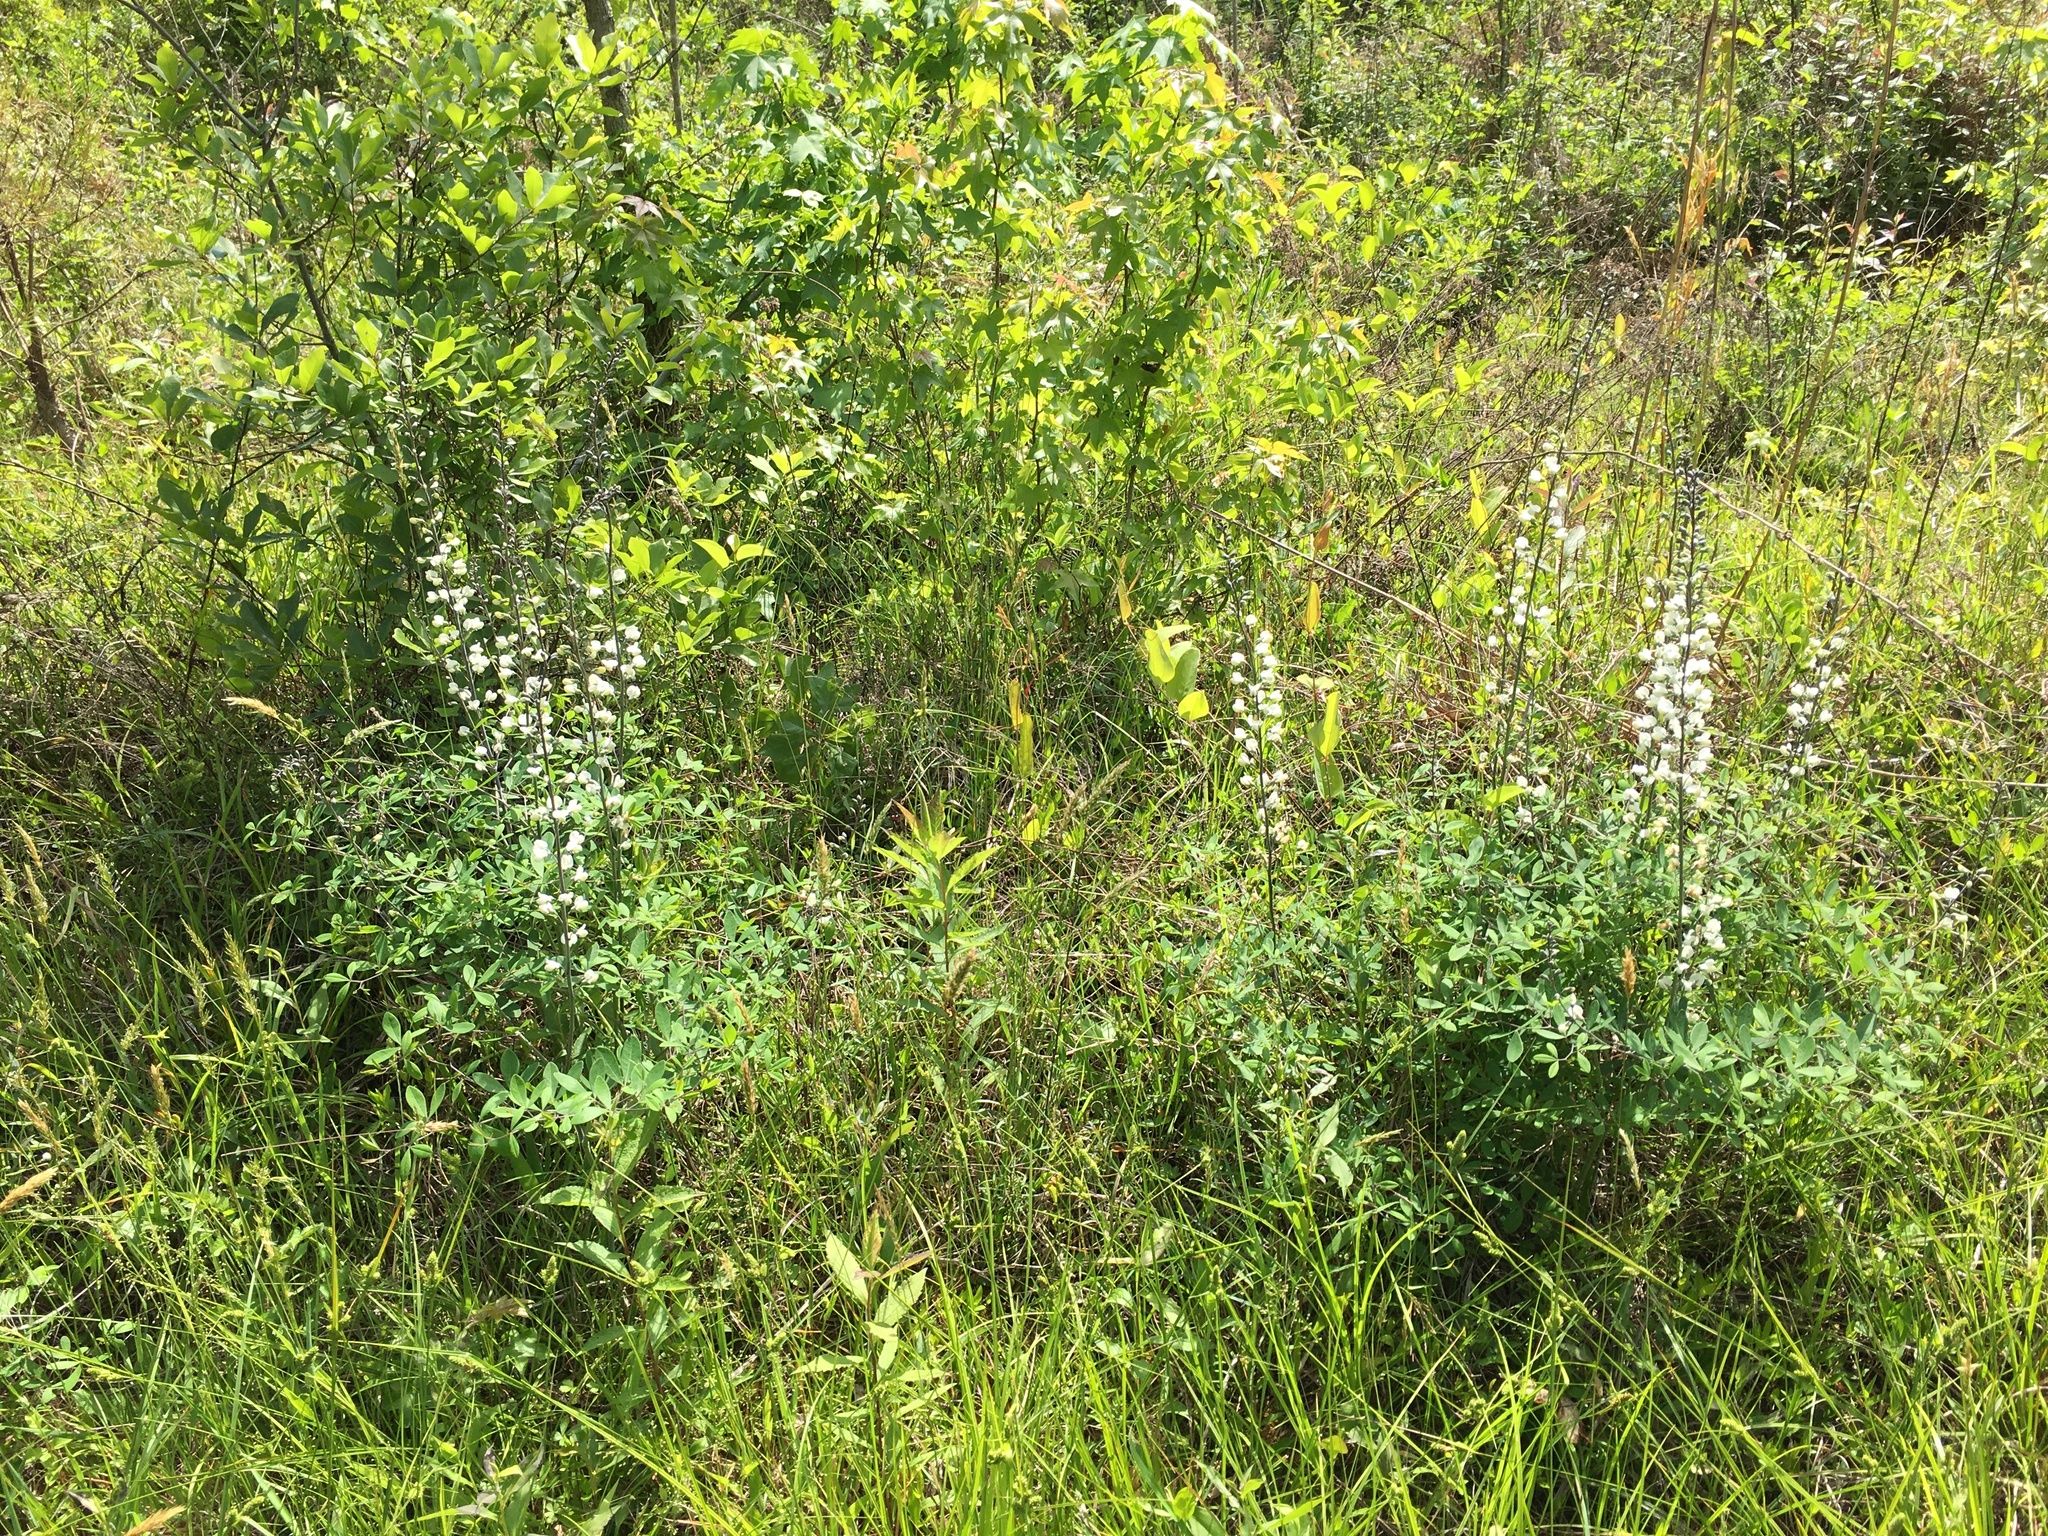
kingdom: Plantae
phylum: Tracheophyta
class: Magnoliopsida
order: Fabales
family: Fabaceae
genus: Baptisia
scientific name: Baptisia albescens
